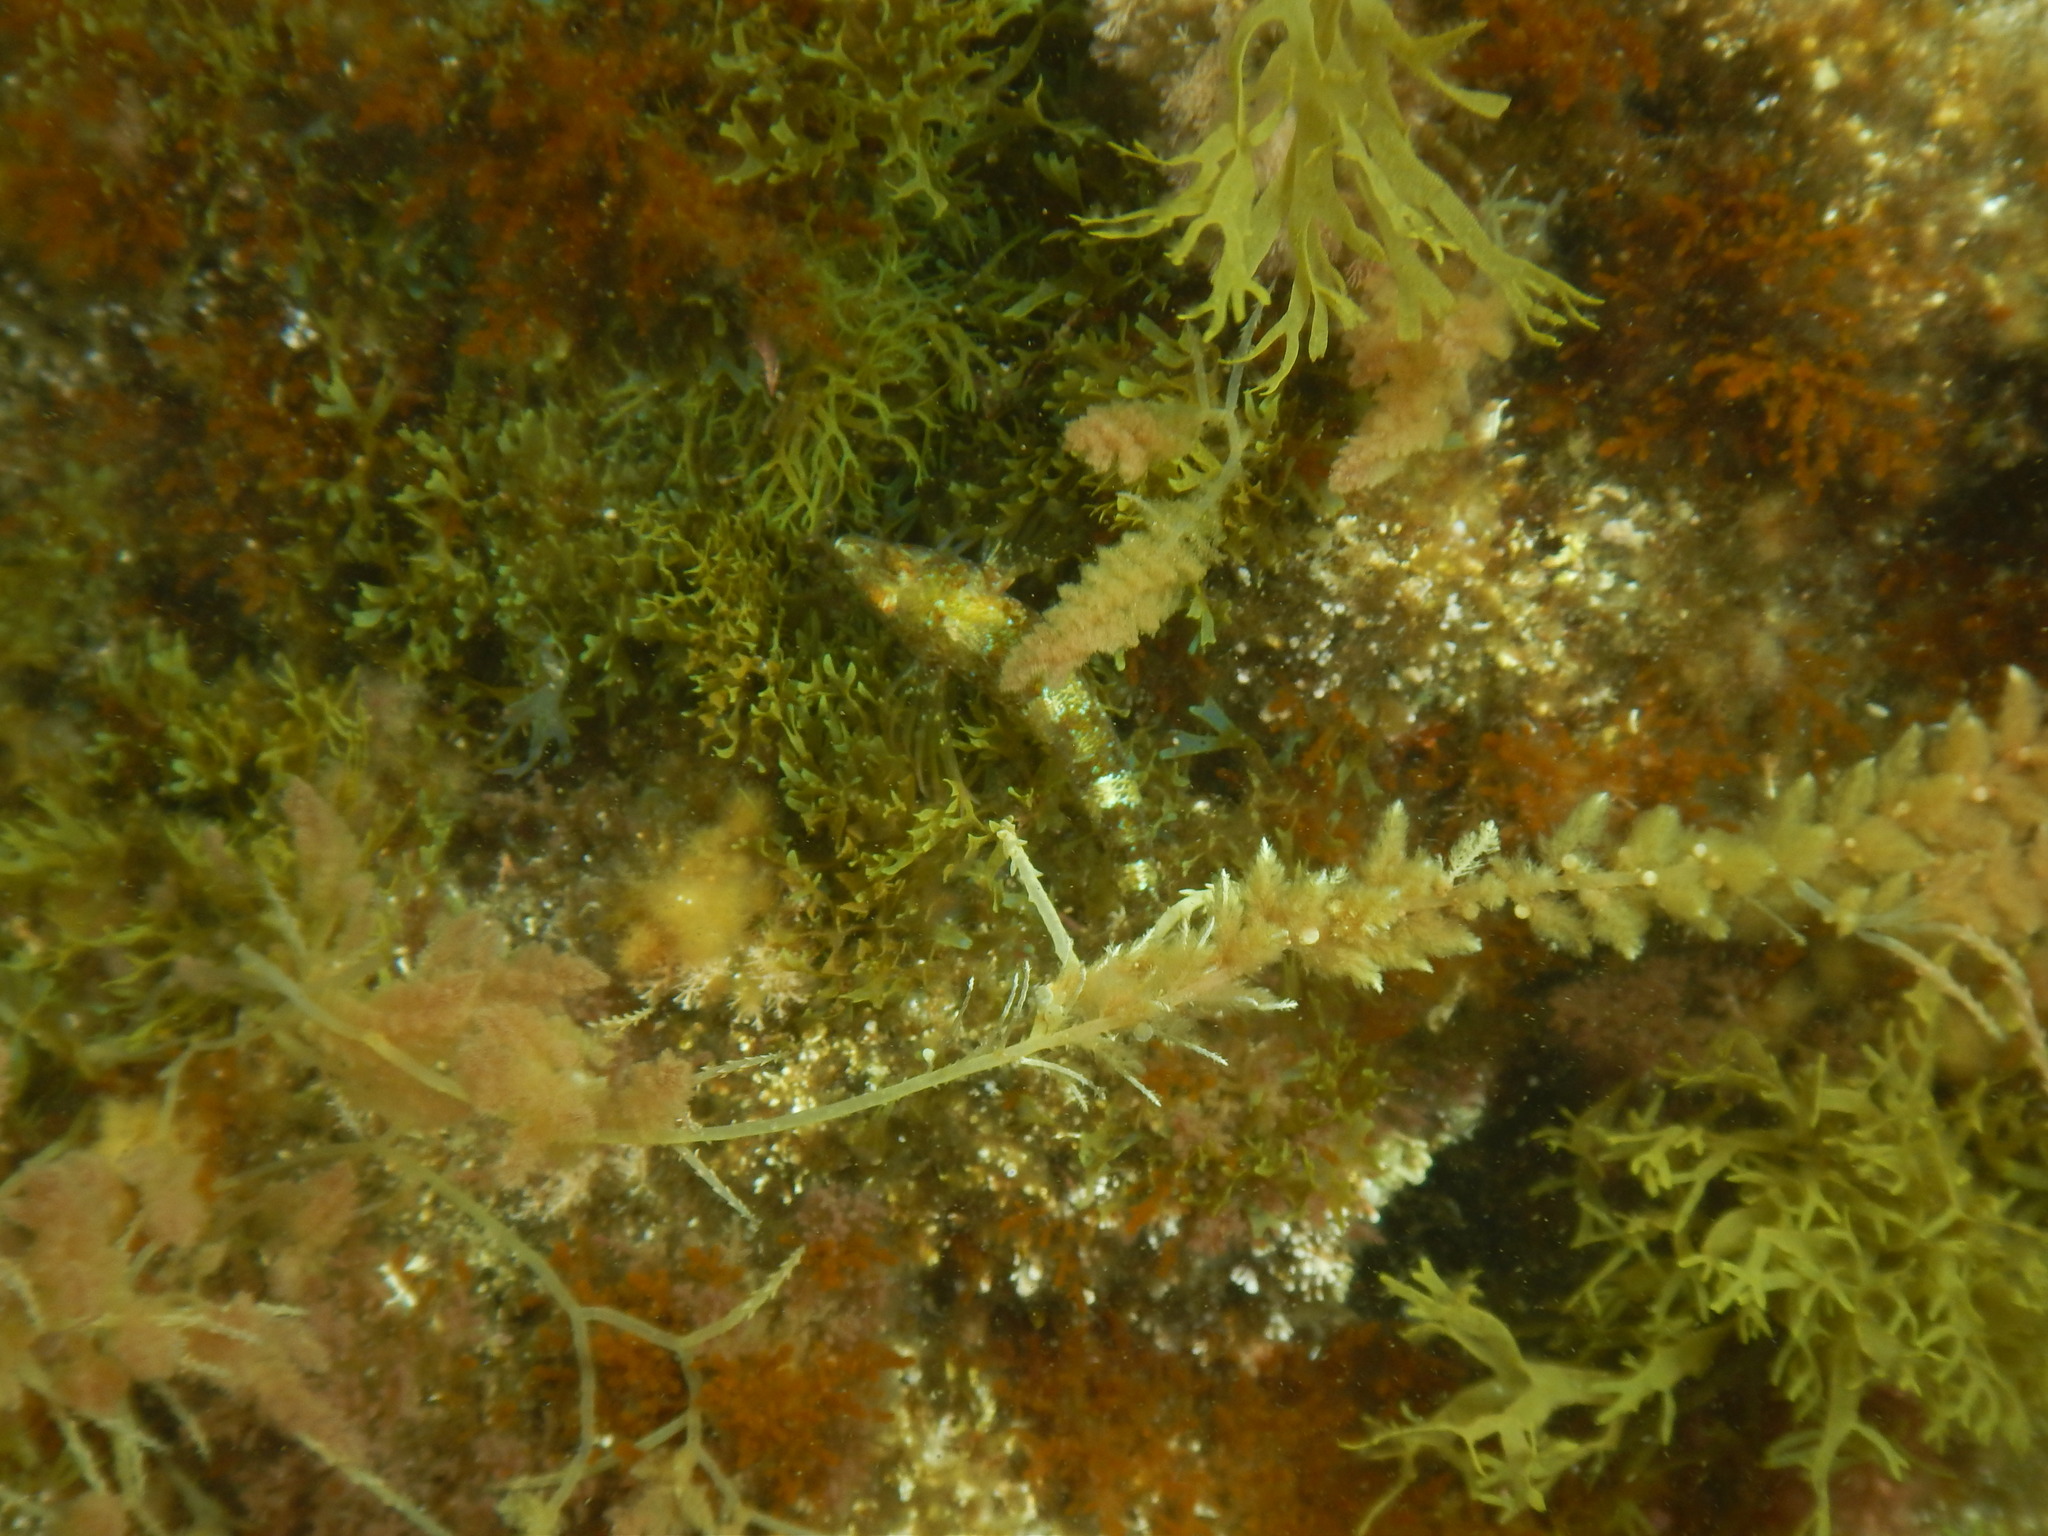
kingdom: Animalia
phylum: Chordata
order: Perciformes
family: Tripterygiidae
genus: Tripterygion
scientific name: Tripterygion tripteronotum
